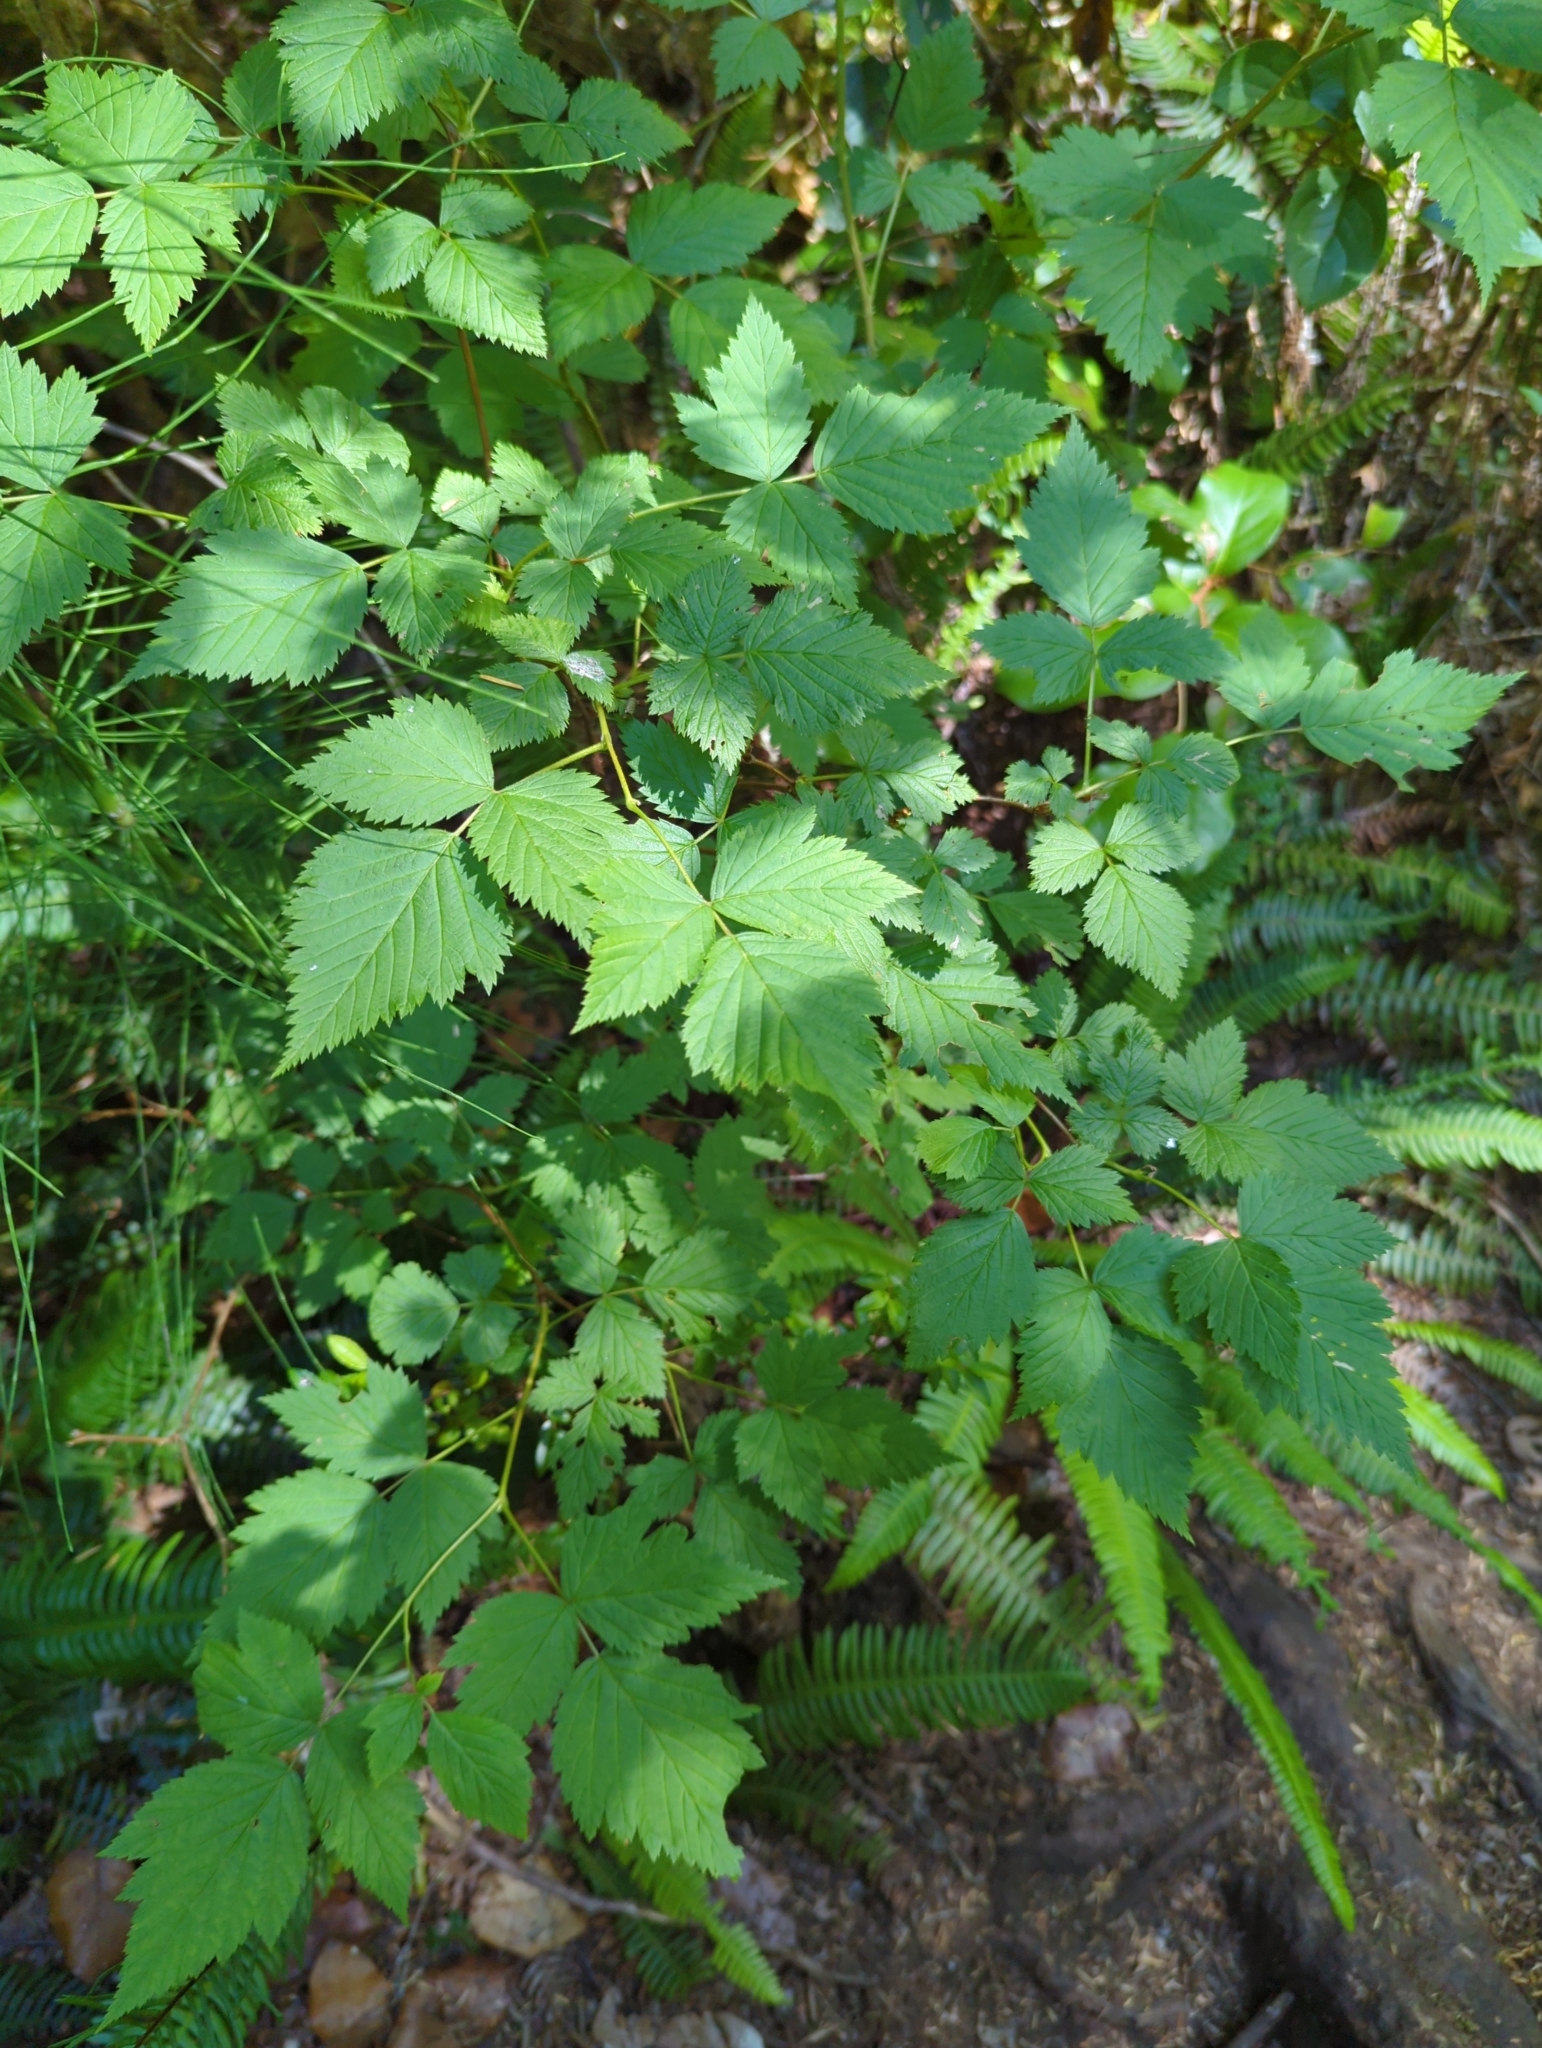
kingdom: Plantae
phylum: Tracheophyta
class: Magnoliopsida
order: Rosales
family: Rosaceae
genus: Rubus
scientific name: Rubus spectabilis
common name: Salmonberry
